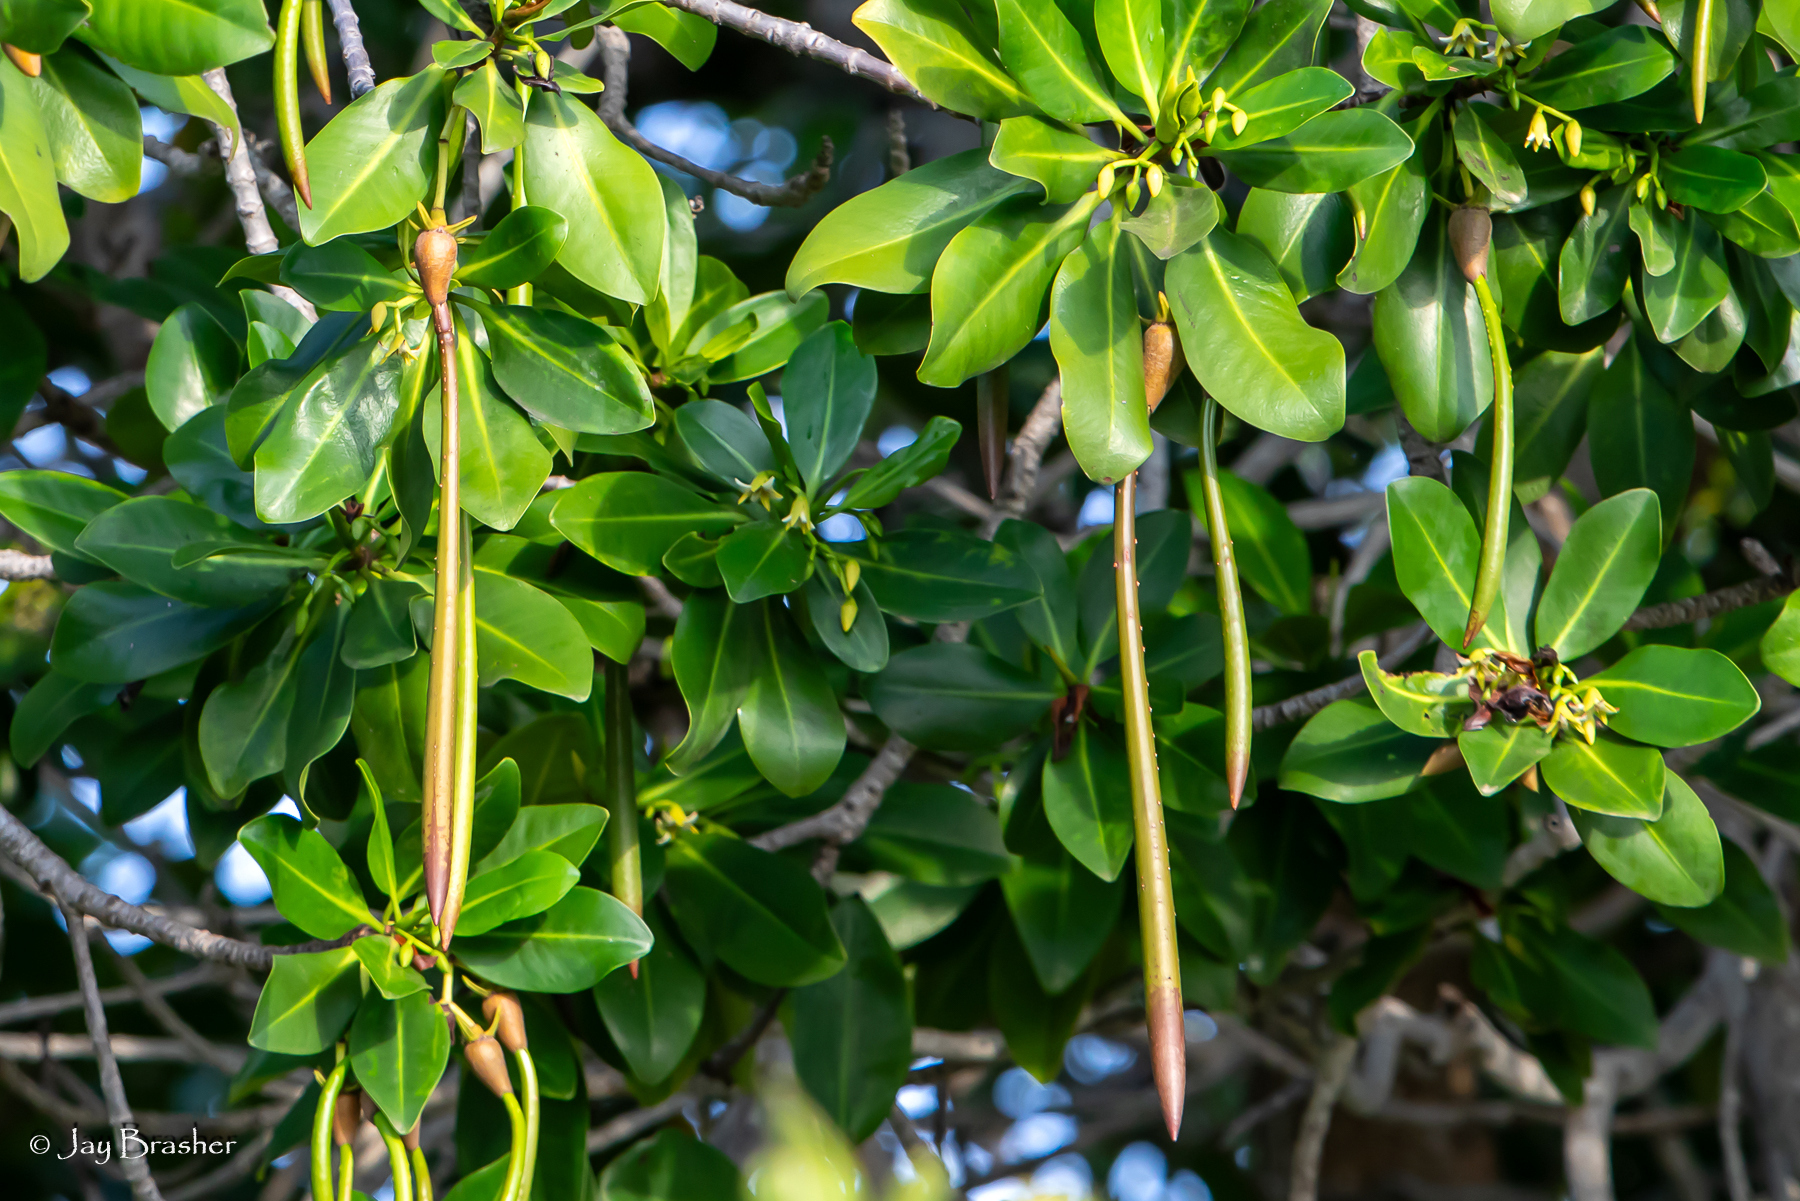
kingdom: Plantae
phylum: Tracheophyta
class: Magnoliopsida
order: Malpighiales
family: Rhizophoraceae
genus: Rhizophora
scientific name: Rhizophora mangle
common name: Red mangrove
